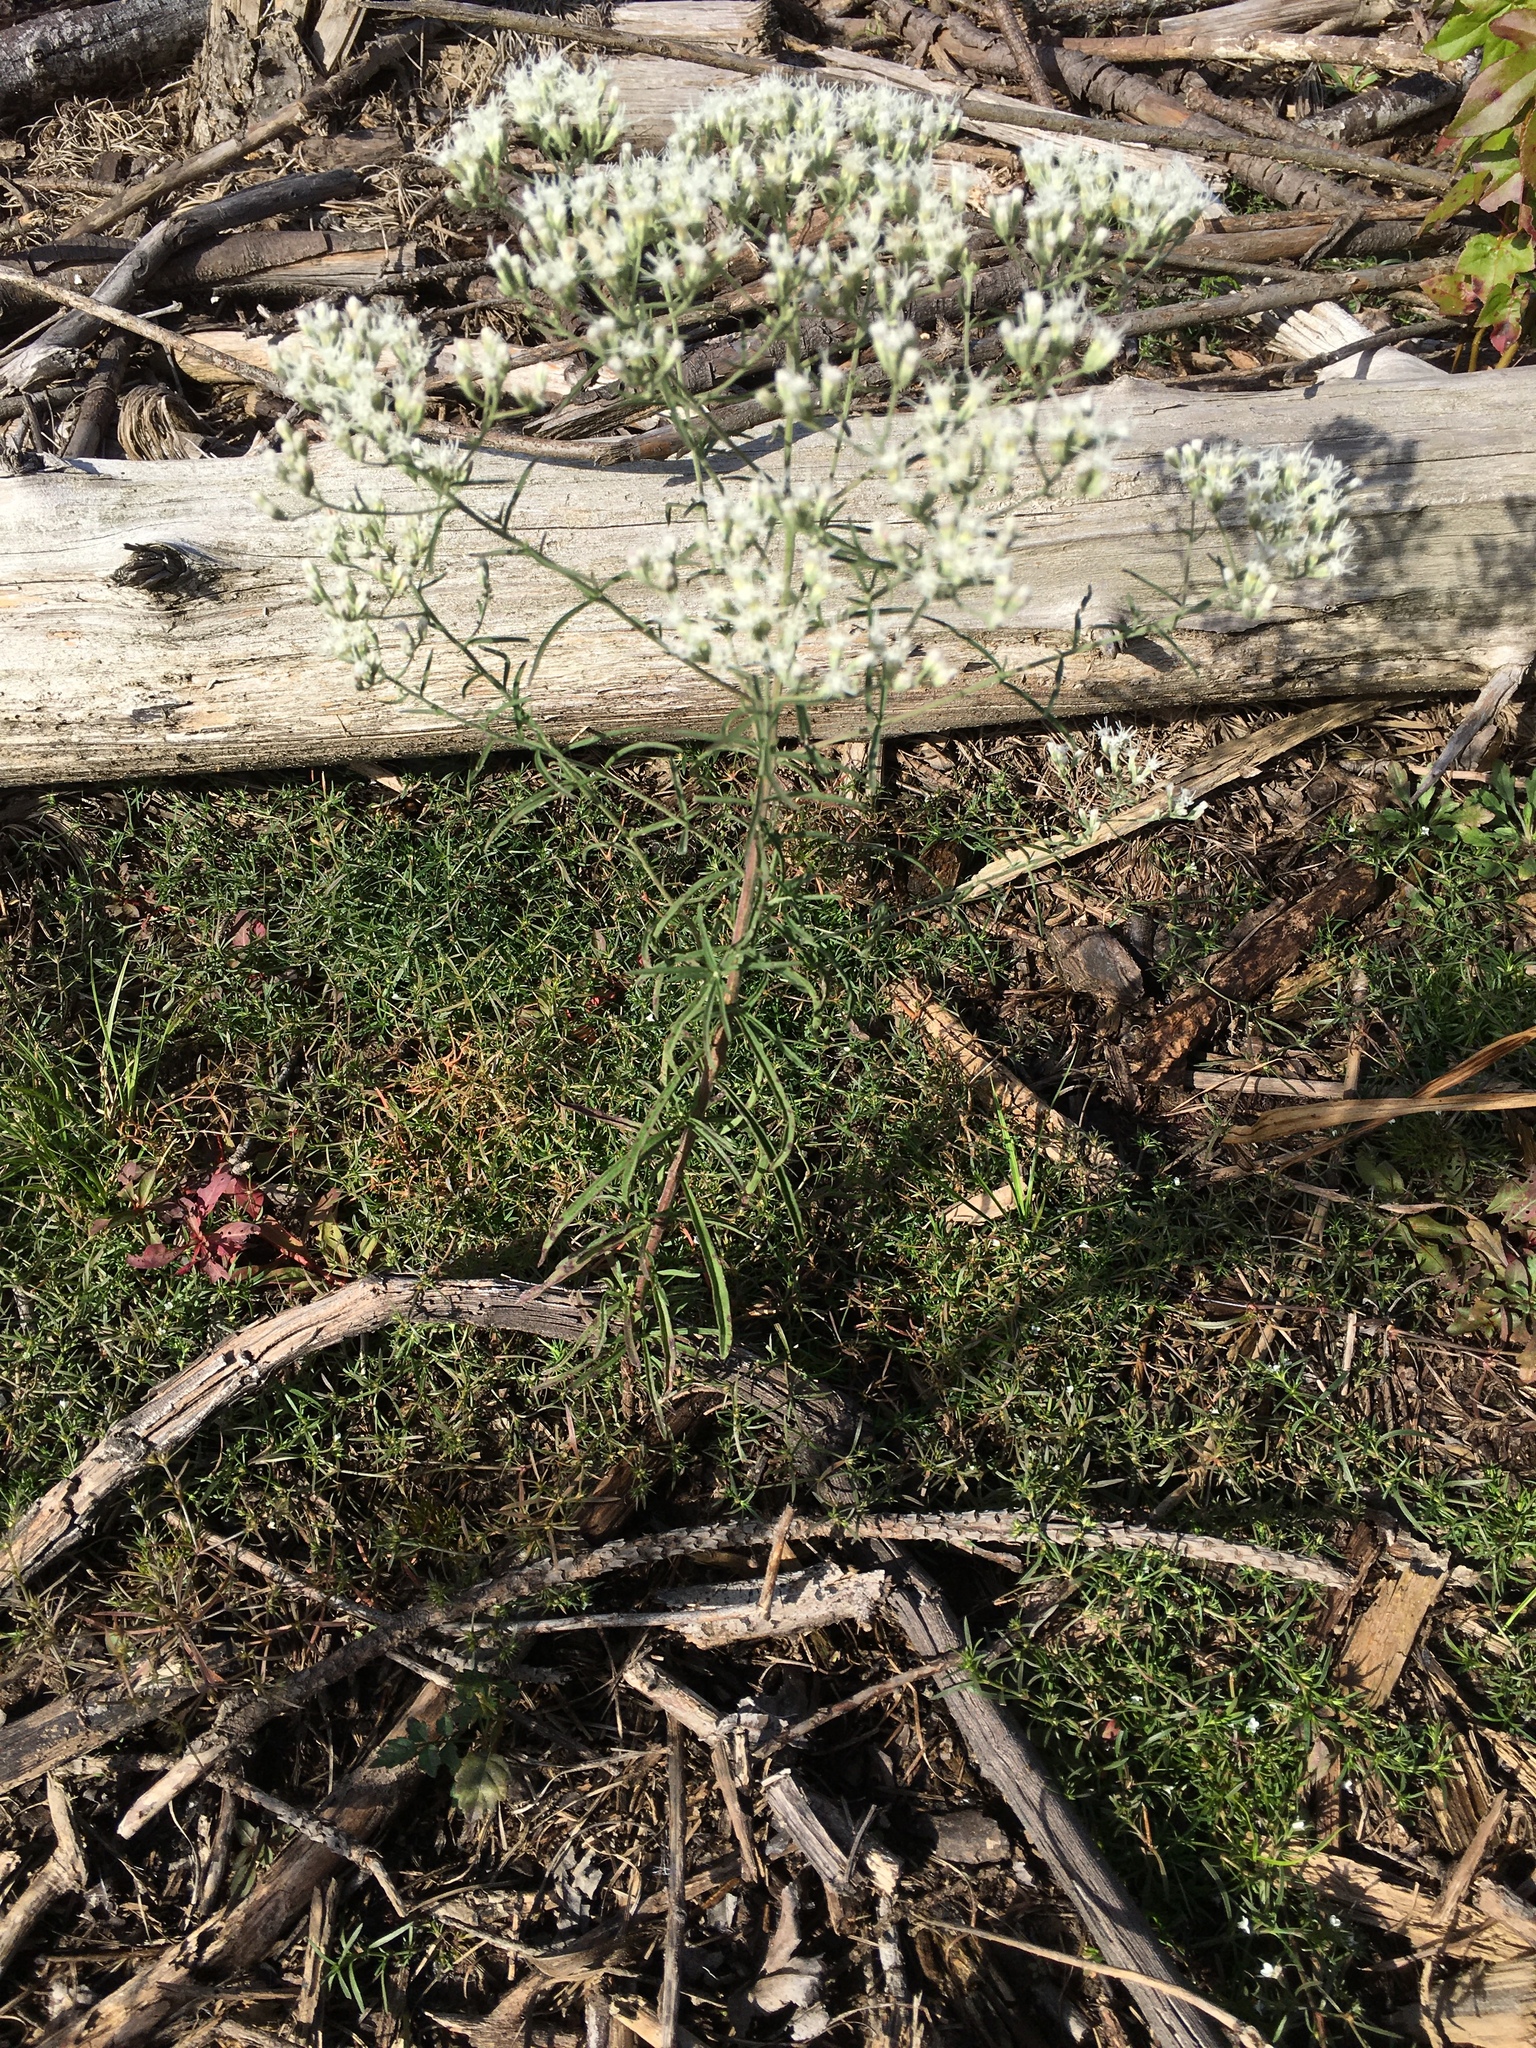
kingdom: Plantae
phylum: Tracheophyta
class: Magnoliopsida
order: Asterales
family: Asteraceae
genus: Eupatorium
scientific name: Eupatorium hyssopifolium
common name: Hyssop-leaf thoroughwort
